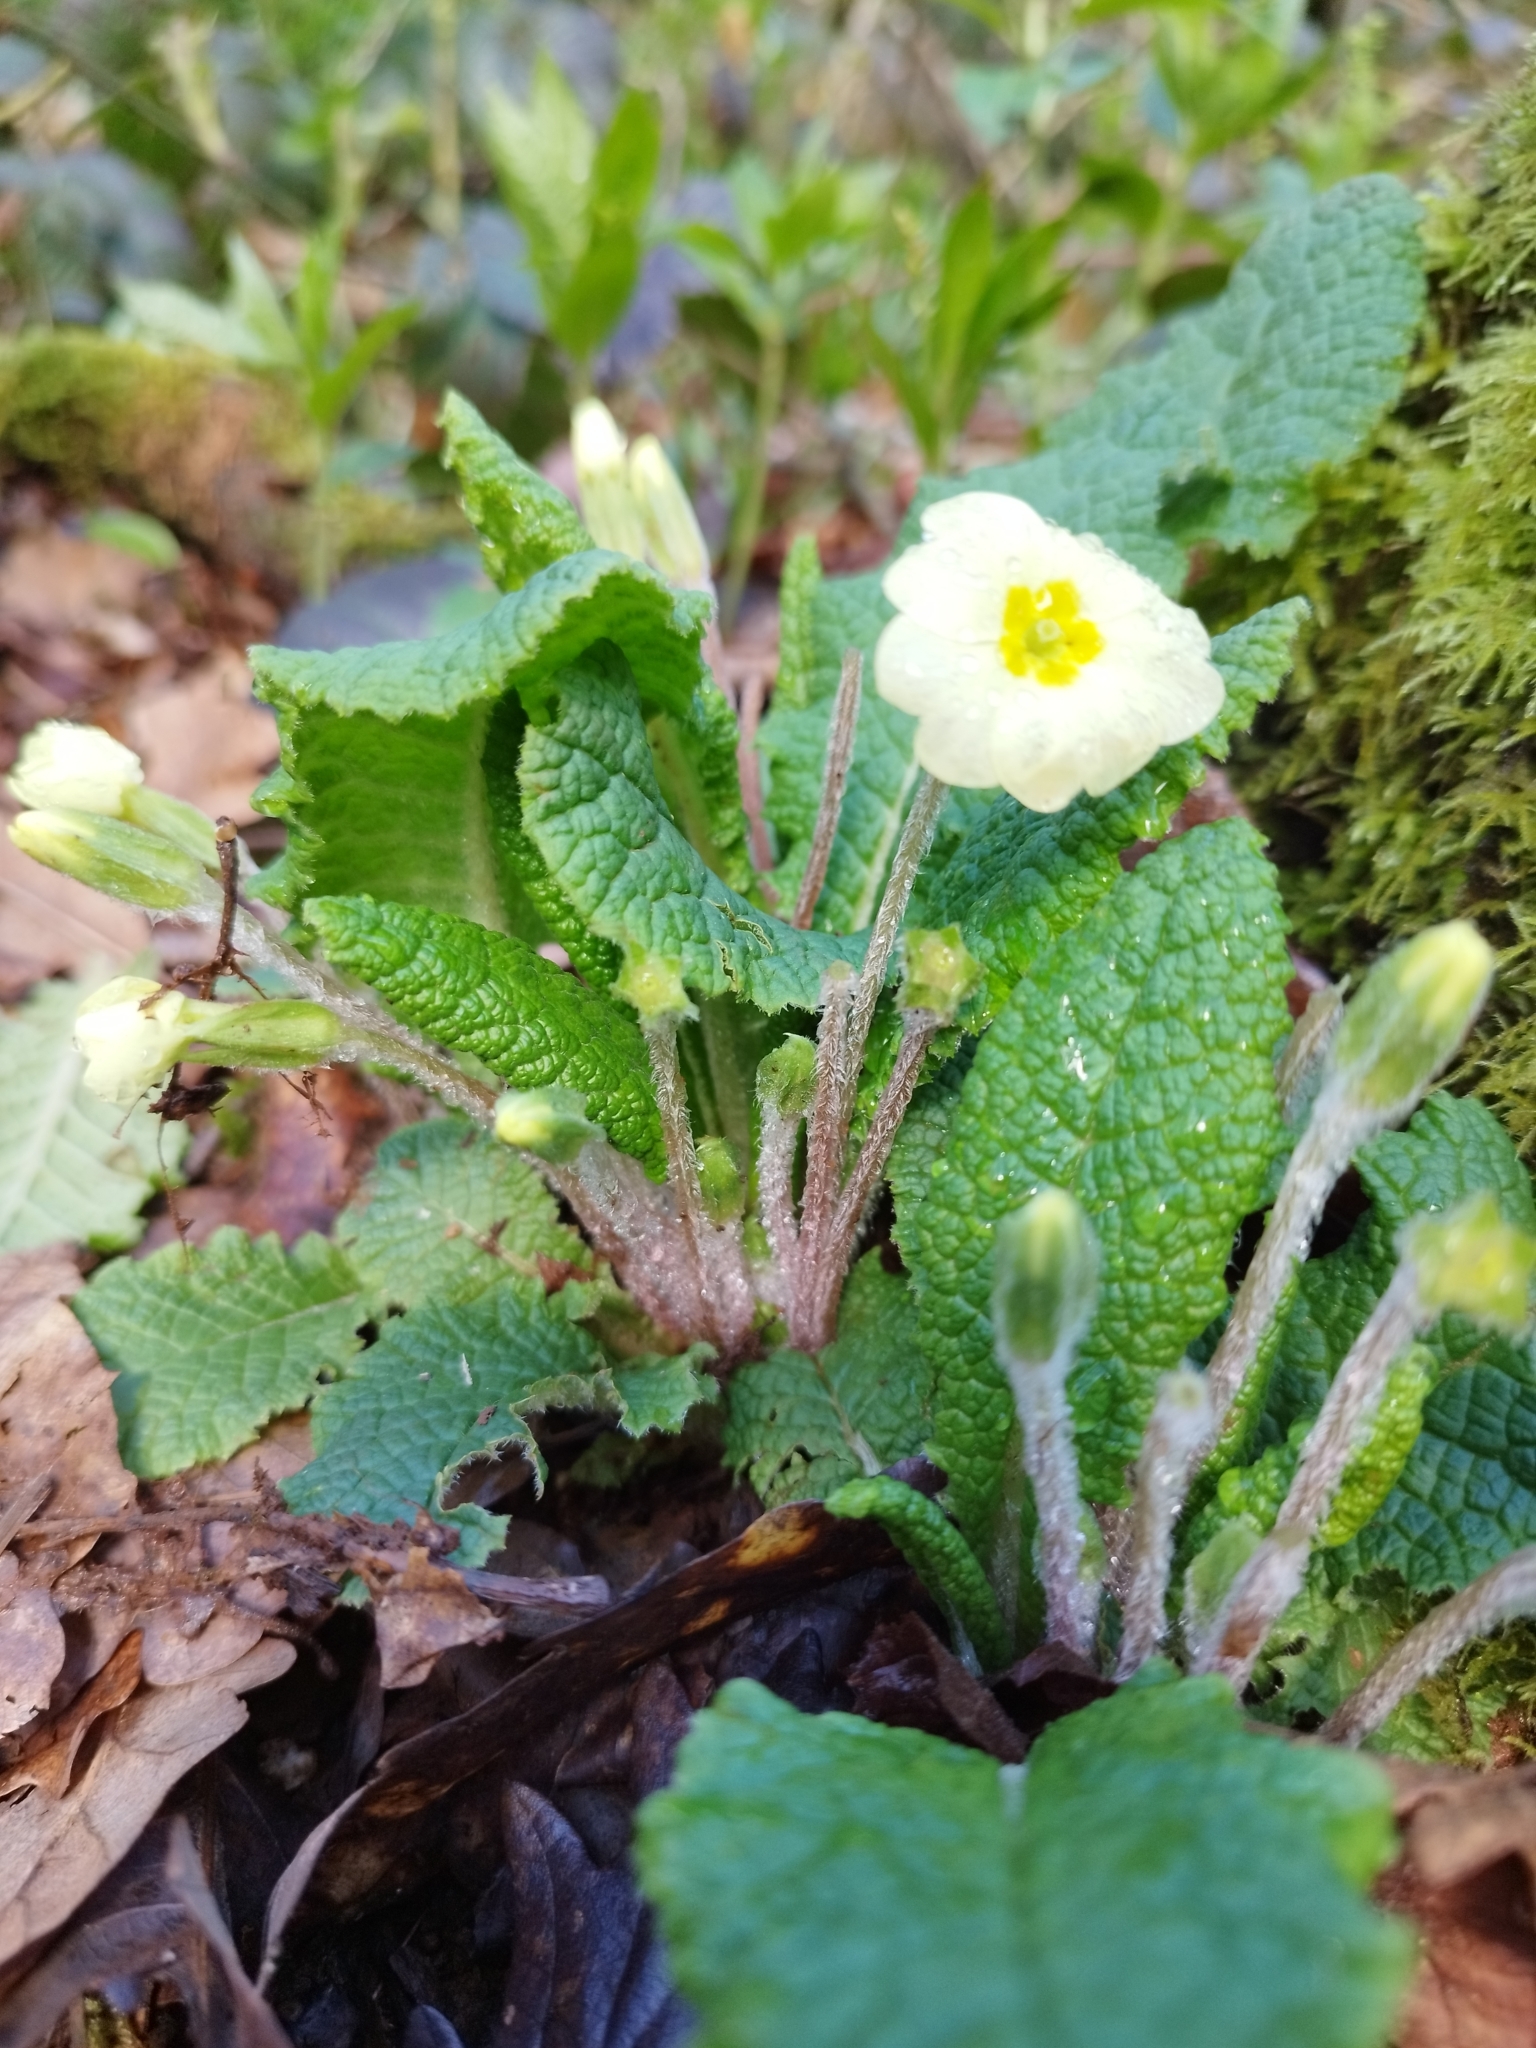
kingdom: Plantae
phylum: Tracheophyta
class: Magnoliopsida
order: Ericales
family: Primulaceae
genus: Primula
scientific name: Primula vulgaris
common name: Primrose
